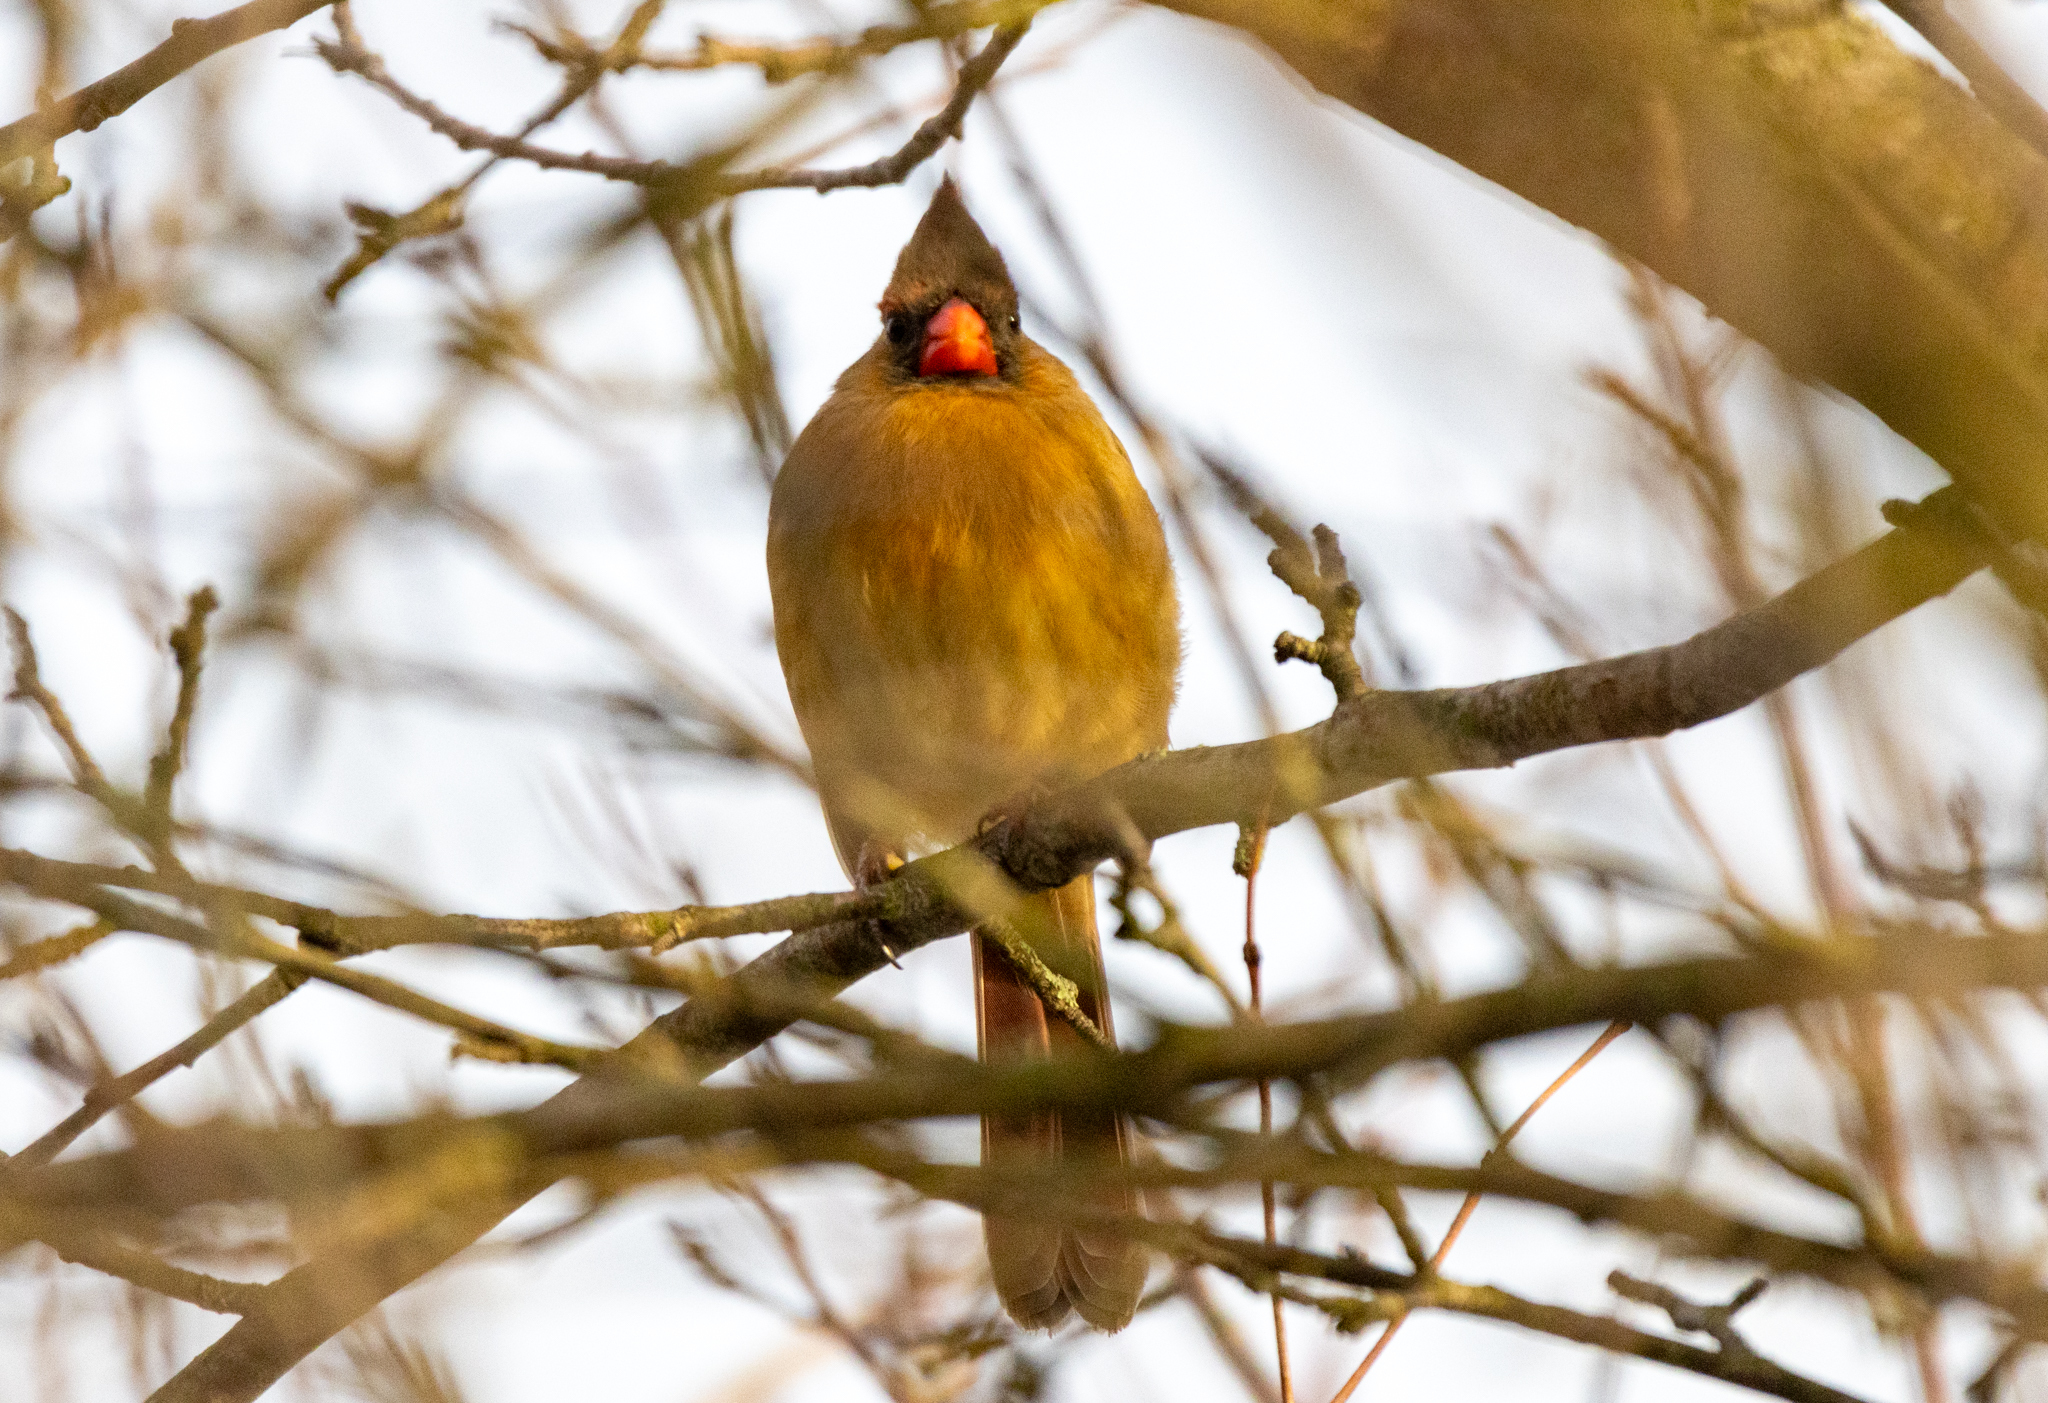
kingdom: Animalia
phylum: Chordata
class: Aves
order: Passeriformes
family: Cardinalidae
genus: Cardinalis
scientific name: Cardinalis cardinalis
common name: Northern cardinal
